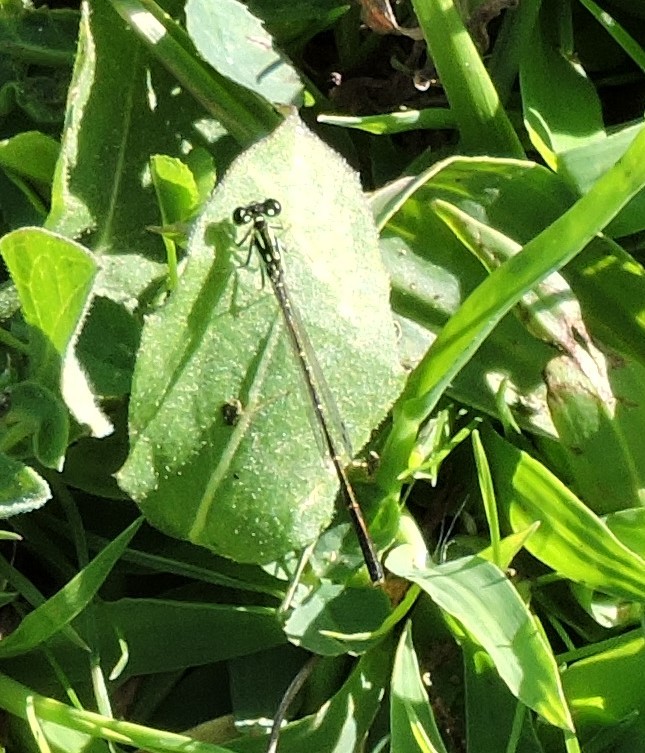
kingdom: Animalia
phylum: Arthropoda
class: Insecta
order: Odonata
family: Coenagrionidae
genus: Ischnura
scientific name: Ischnura posita
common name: Fragile forktail
